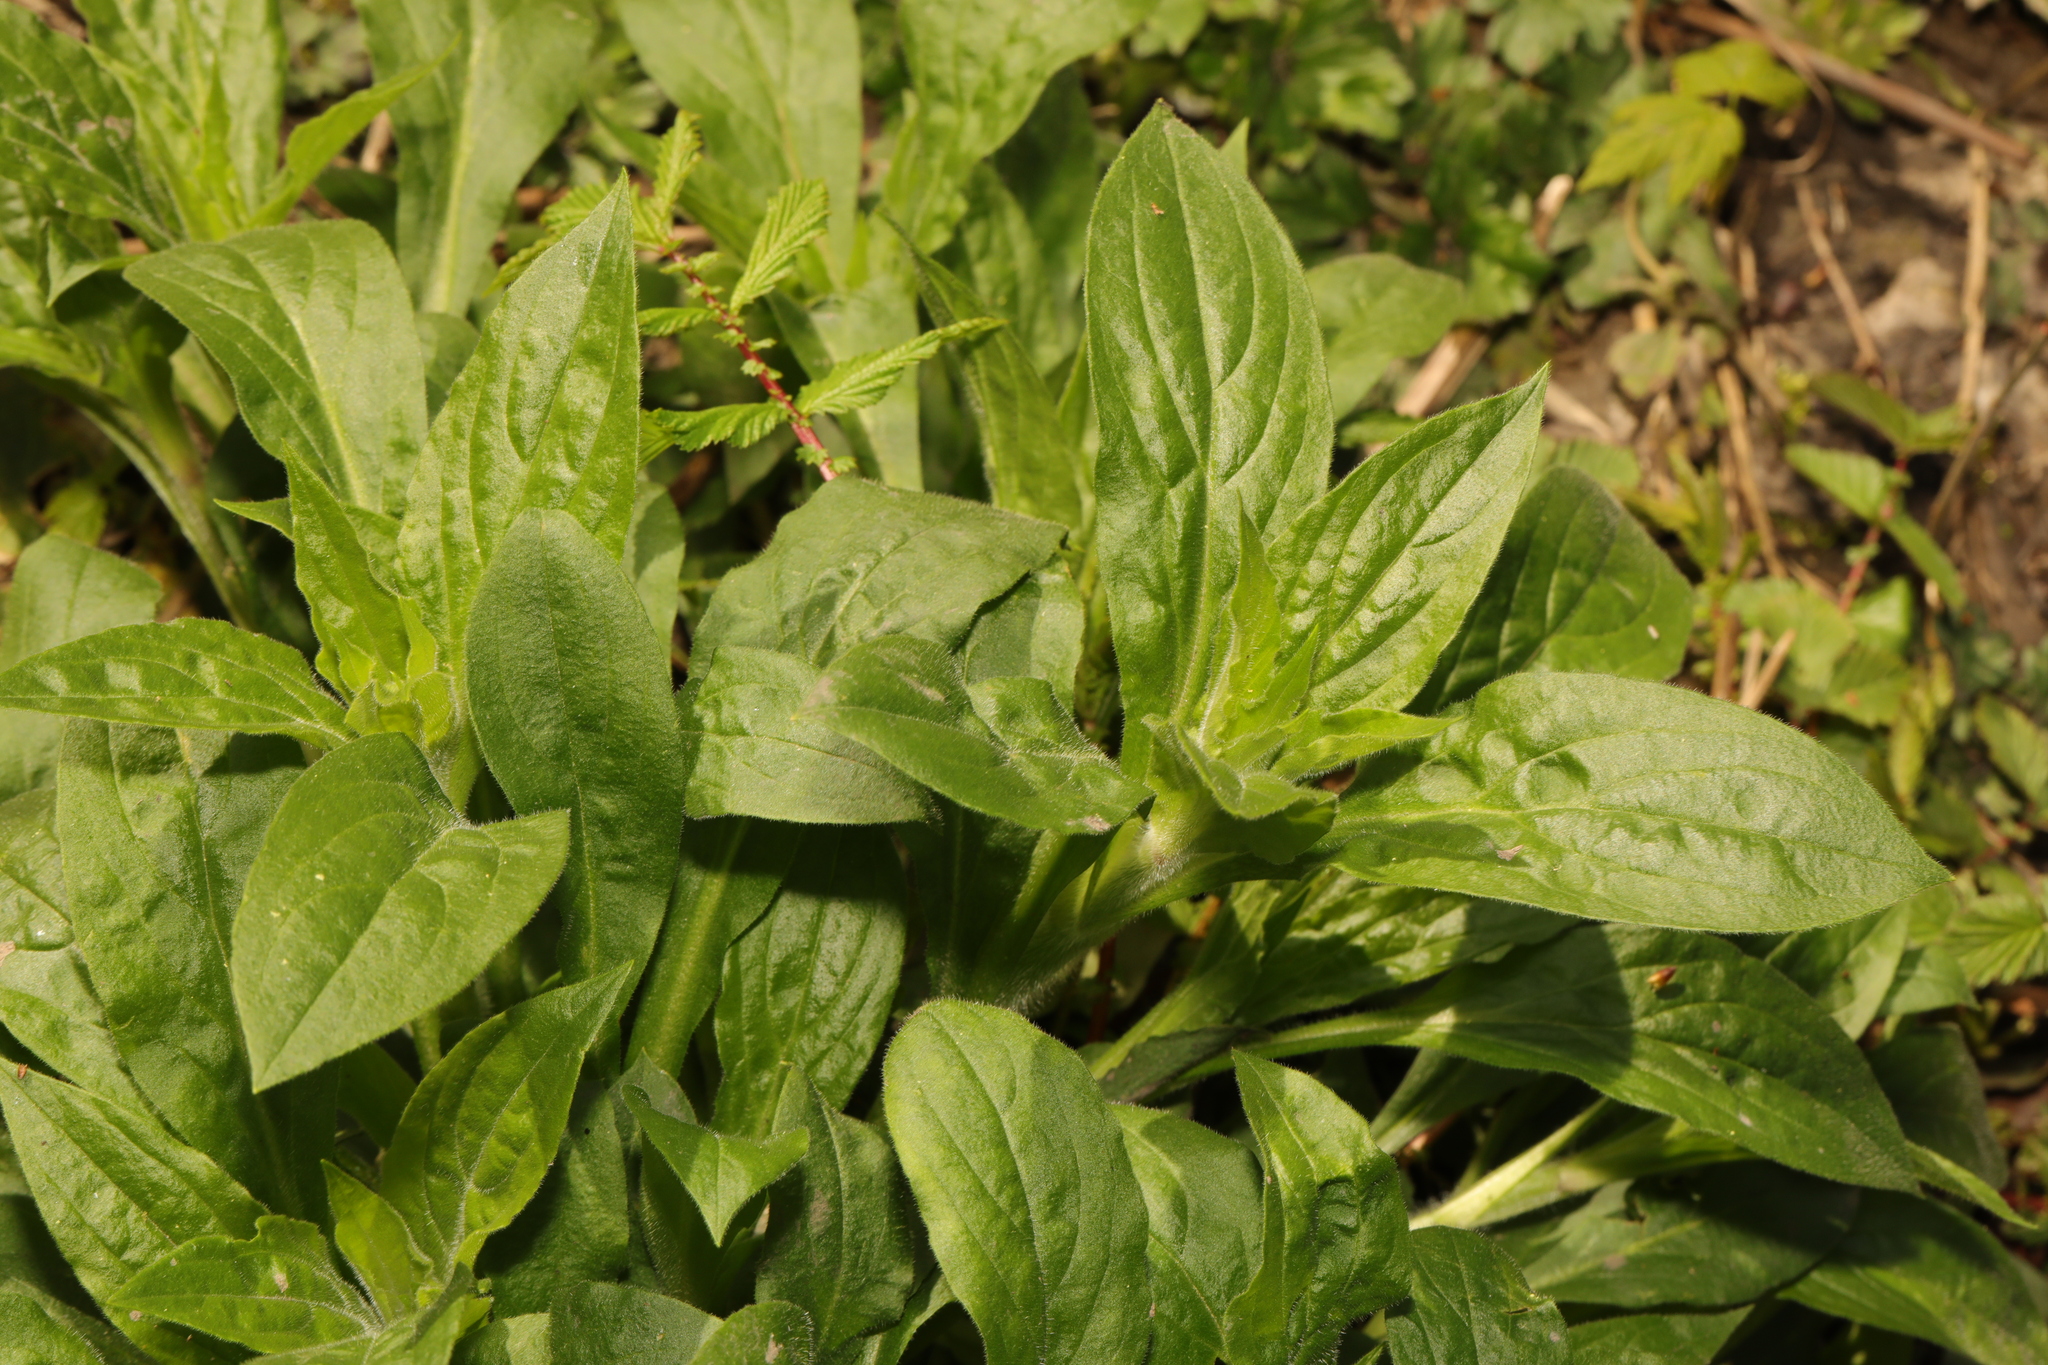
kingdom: Plantae
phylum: Tracheophyta
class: Magnoliopsida
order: Caryophyllales
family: Caryophyllaceae
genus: Silene
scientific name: Silene dioica
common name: Red campion
